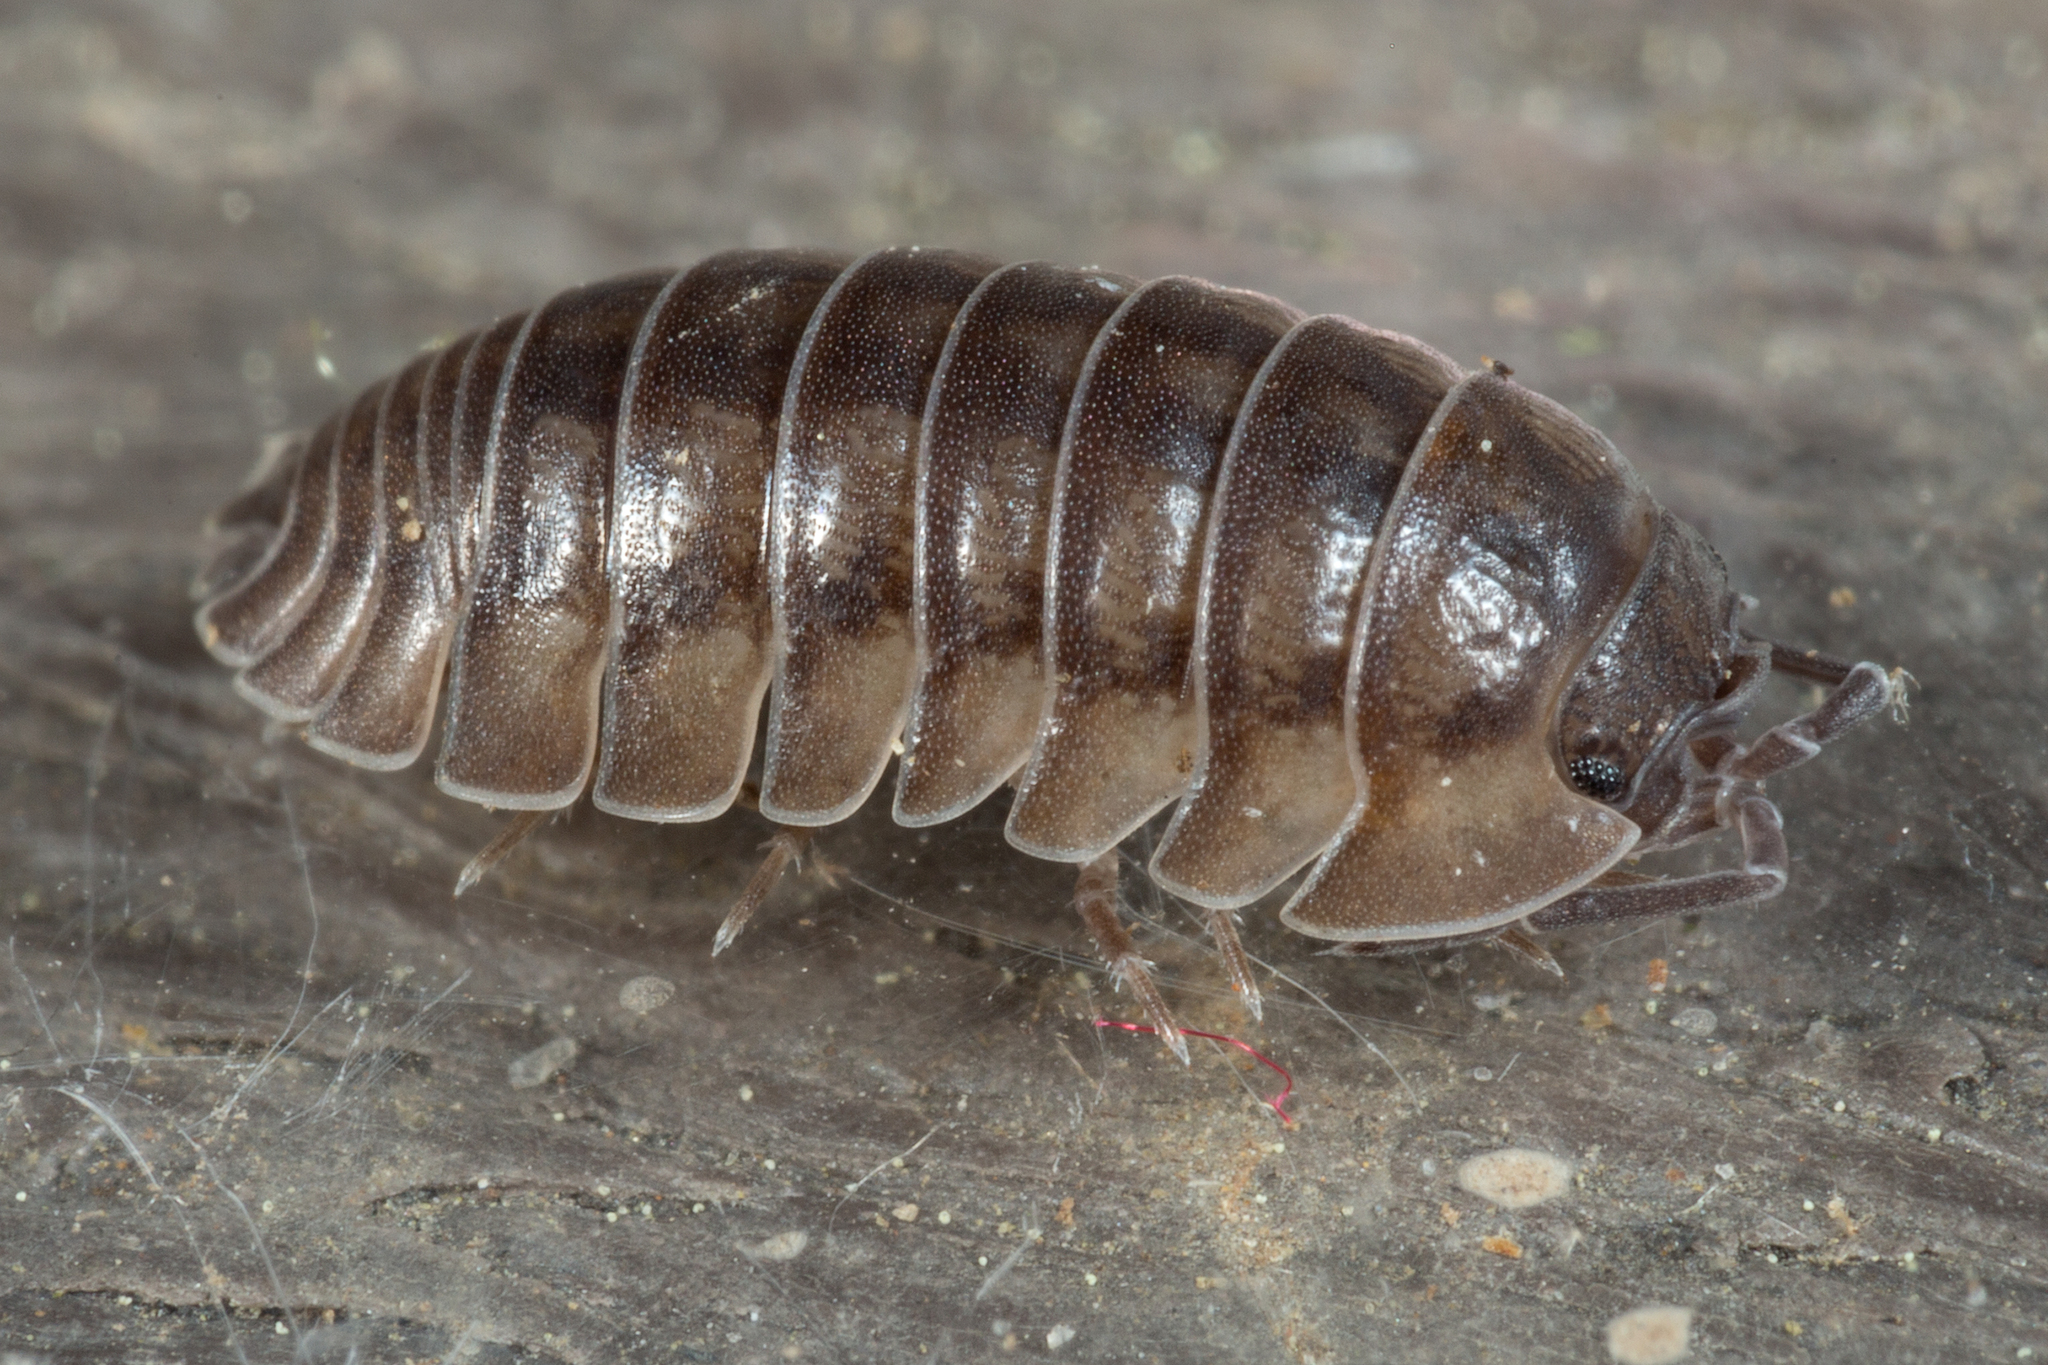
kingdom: Animalia
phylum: Arthropoda
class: Malacostraca
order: Isopoda
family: Armadillidiidae
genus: Armadillidium
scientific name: Armadillidium nasatum
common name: Isopod
